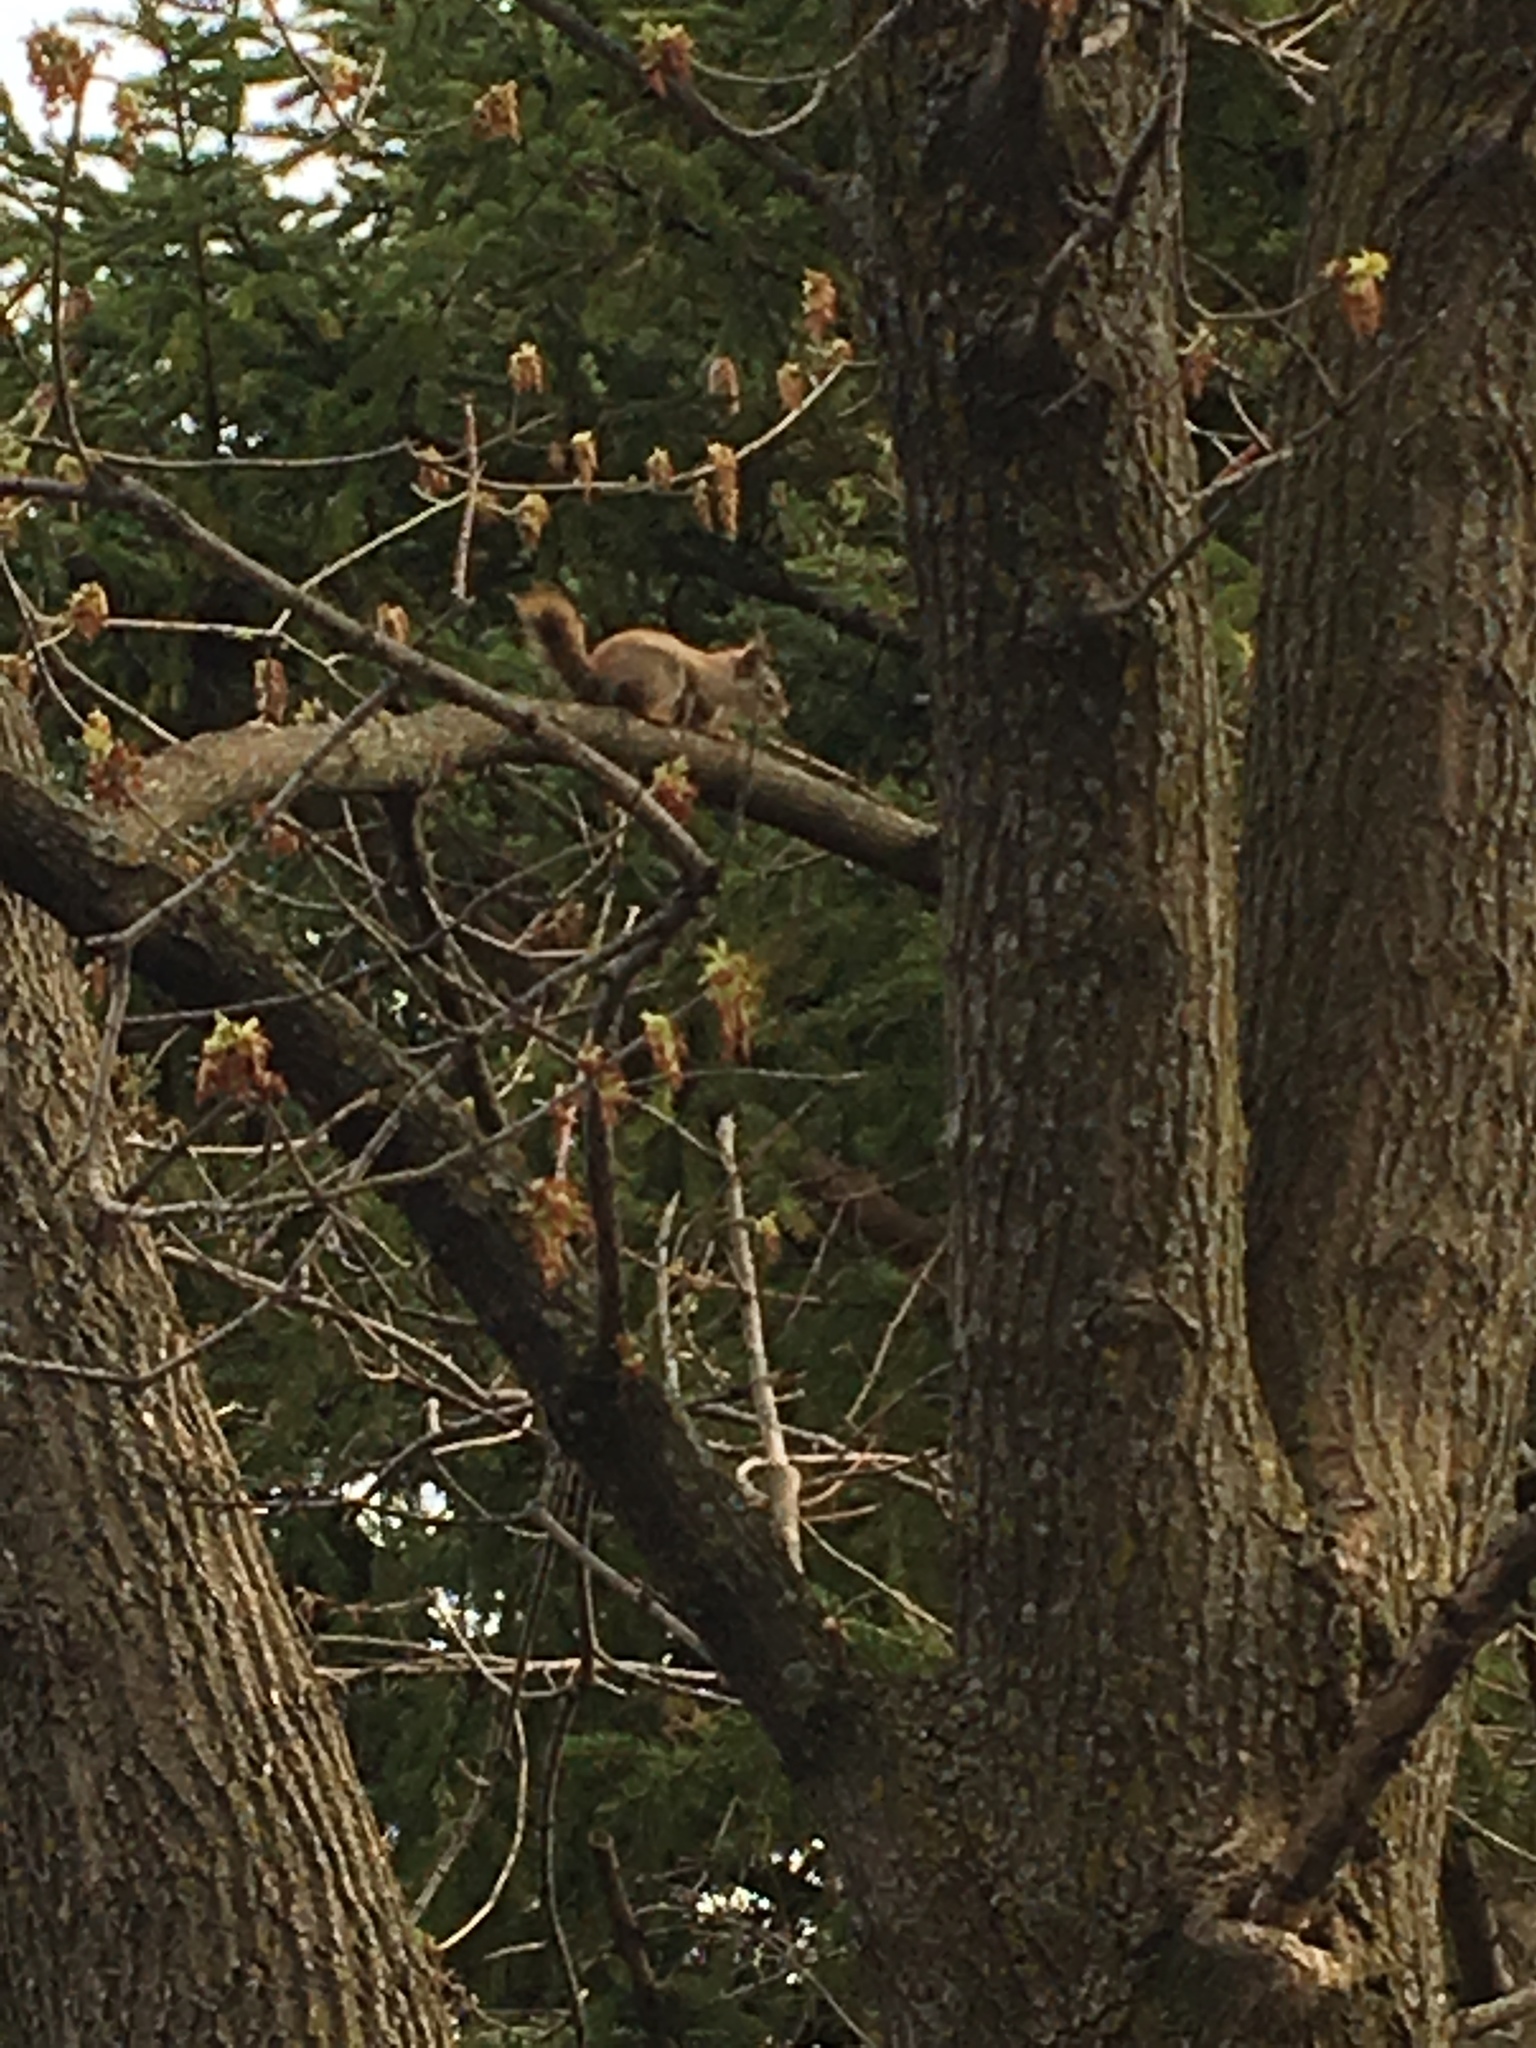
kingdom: Animalia
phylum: Chordata
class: Mammalia
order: Rodentia
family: Sciuridae
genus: Tamiasciurus
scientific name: Tamiasciurus hudsonicus
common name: Red squirrel
